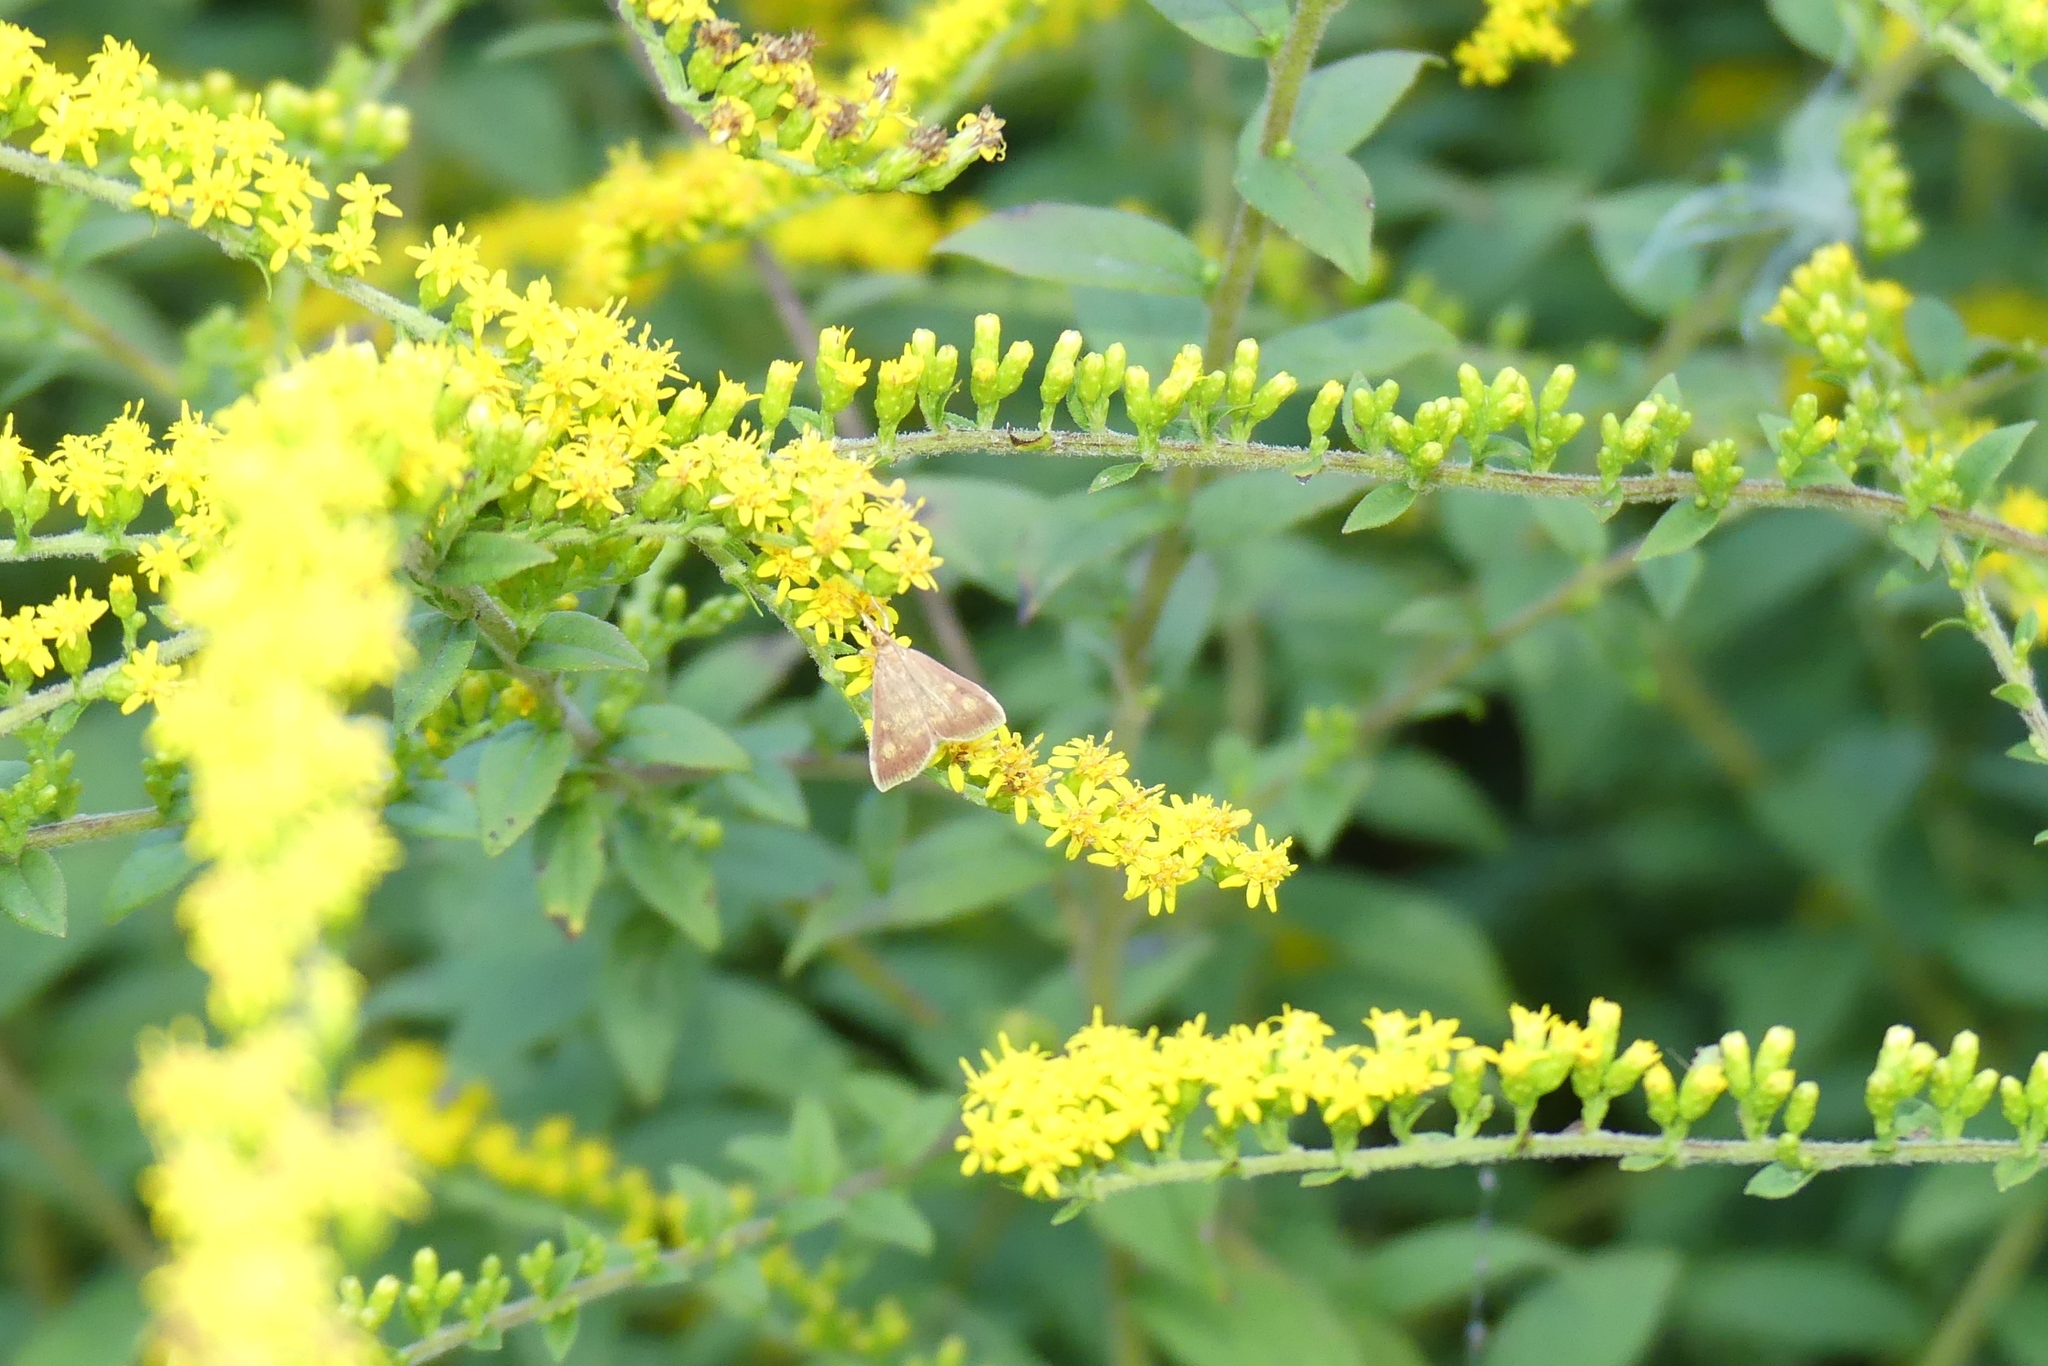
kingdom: Animalia
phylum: Arthropoda
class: Insecta
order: Lepidoptera
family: Crambidae
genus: Pyrausta
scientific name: Pyrausta acrionalis
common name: Mint-loving pyrausta moth
